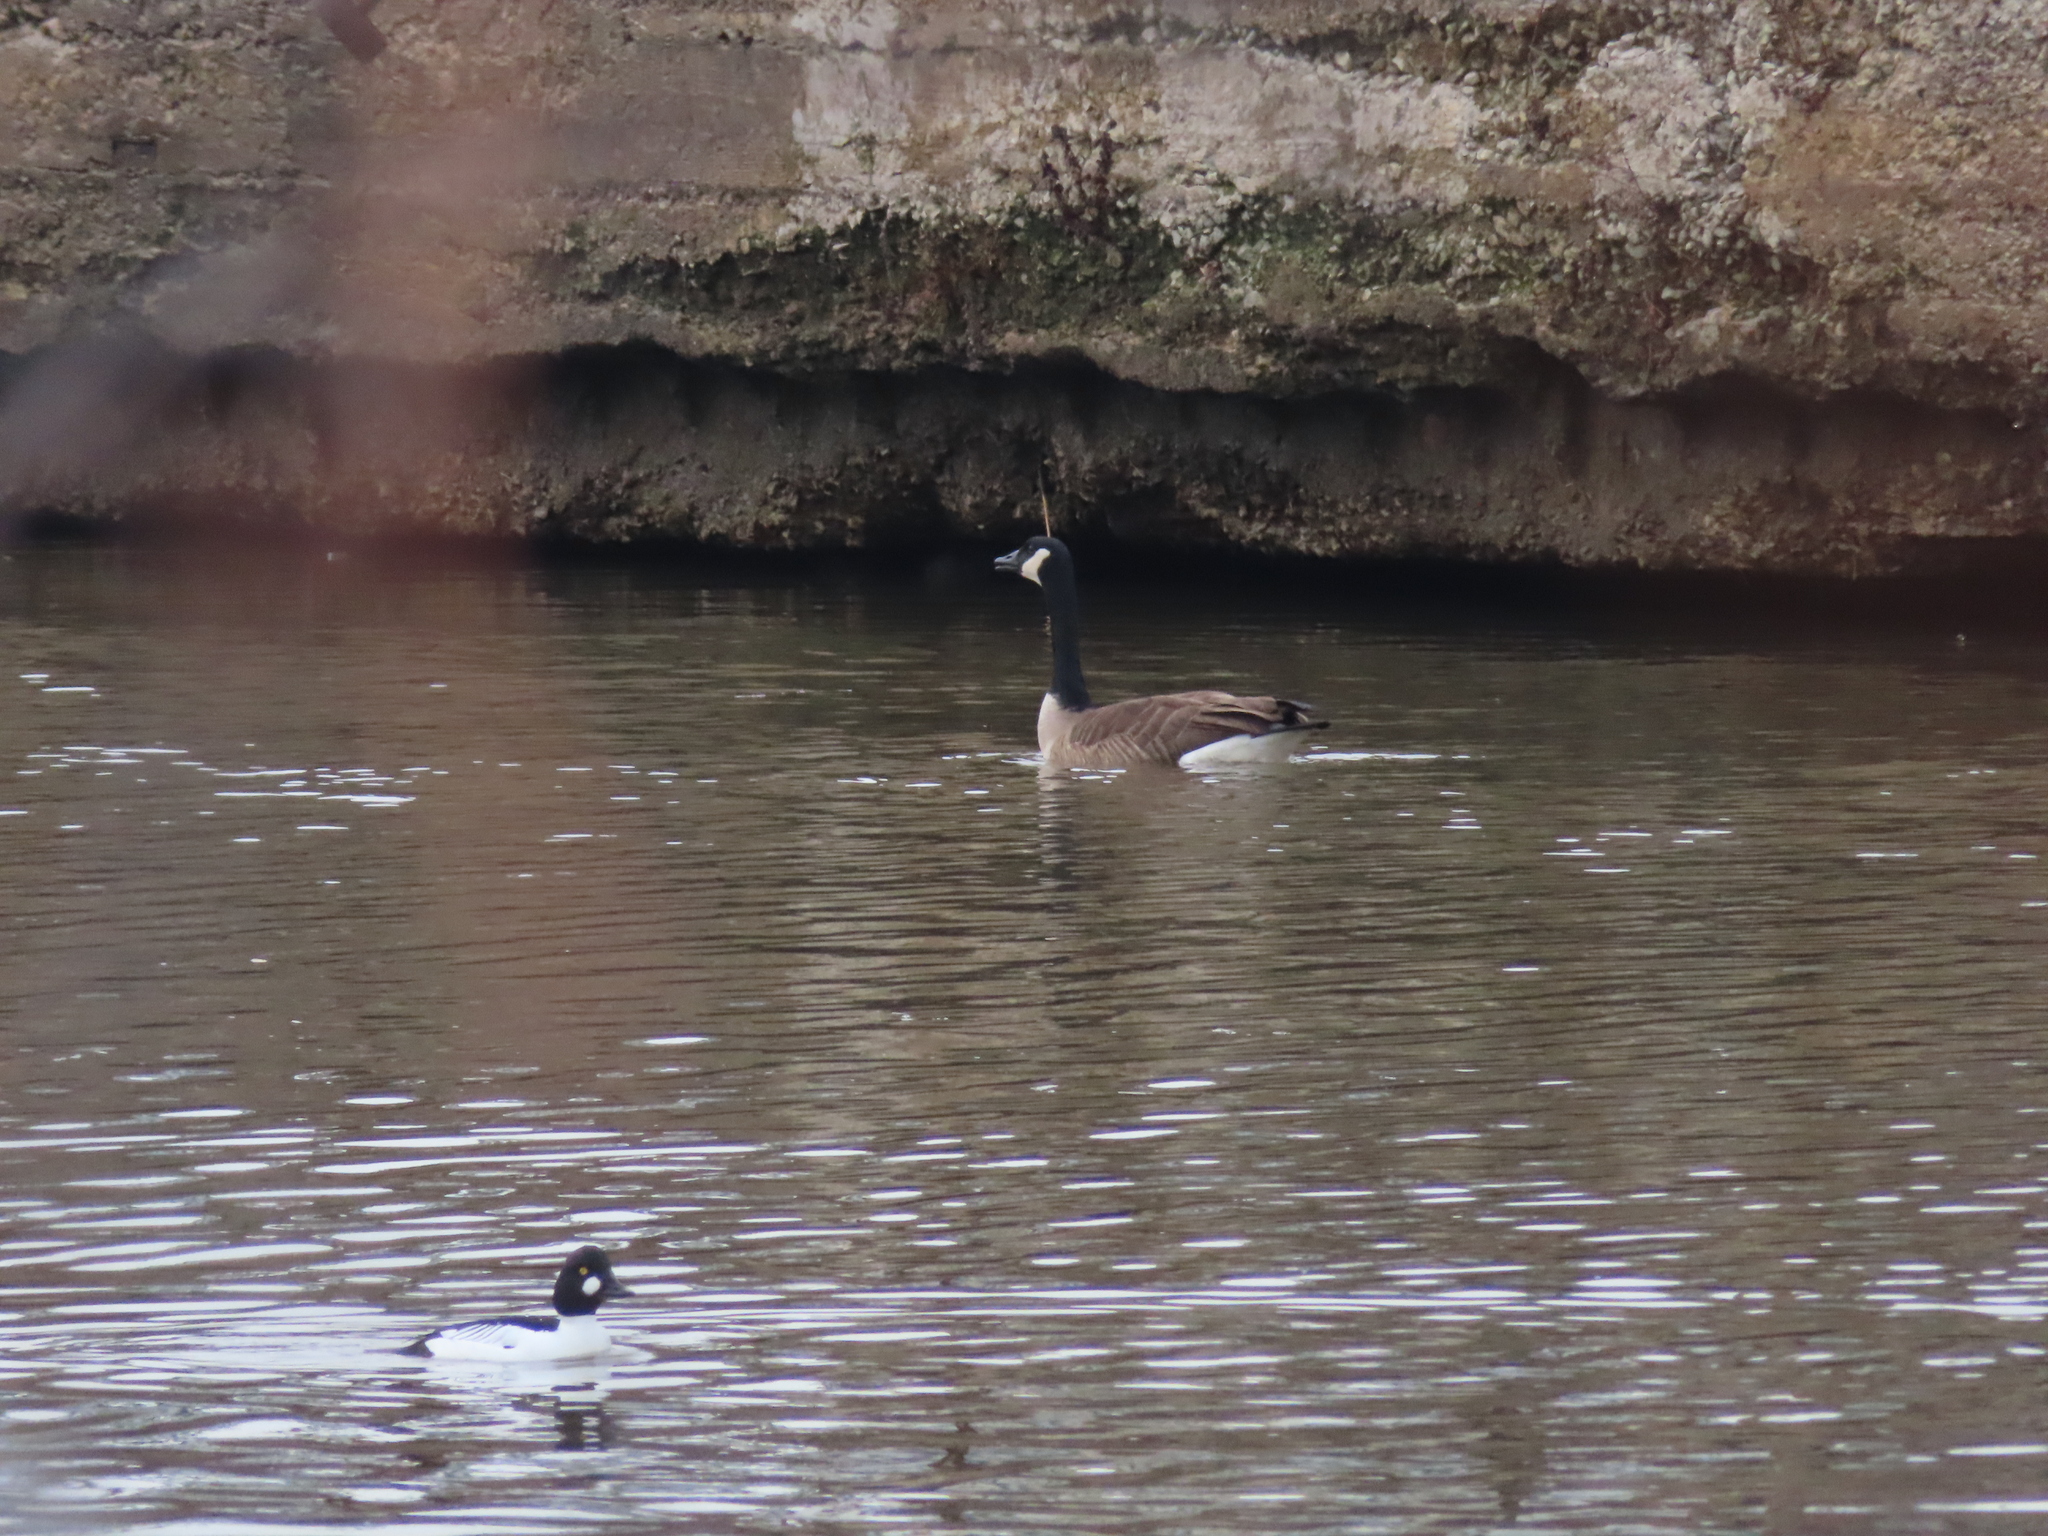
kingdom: Animalia
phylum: Chordata
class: Aves
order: Anseriformes
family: Anatidae
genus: Branta
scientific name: Branta canadensis
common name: Canada goose
